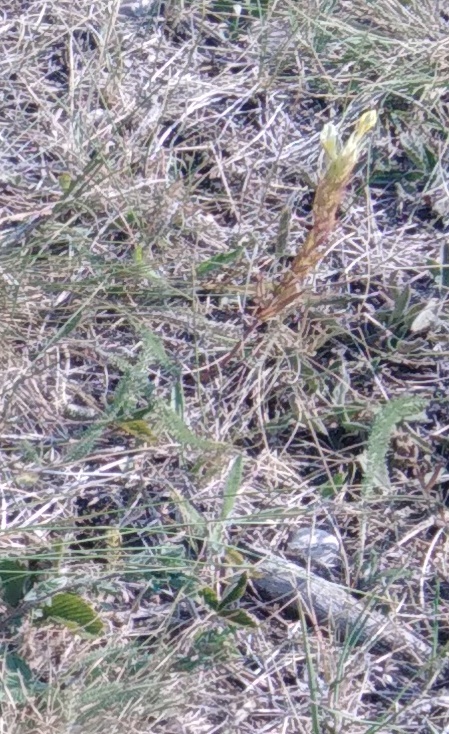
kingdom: Plantae
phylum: Tracheophyta
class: Magnoliopsida
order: Lamiales
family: Orobanchaceae
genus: Melampyrum
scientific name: Melampyrum arvense
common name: Field cow-wheat
